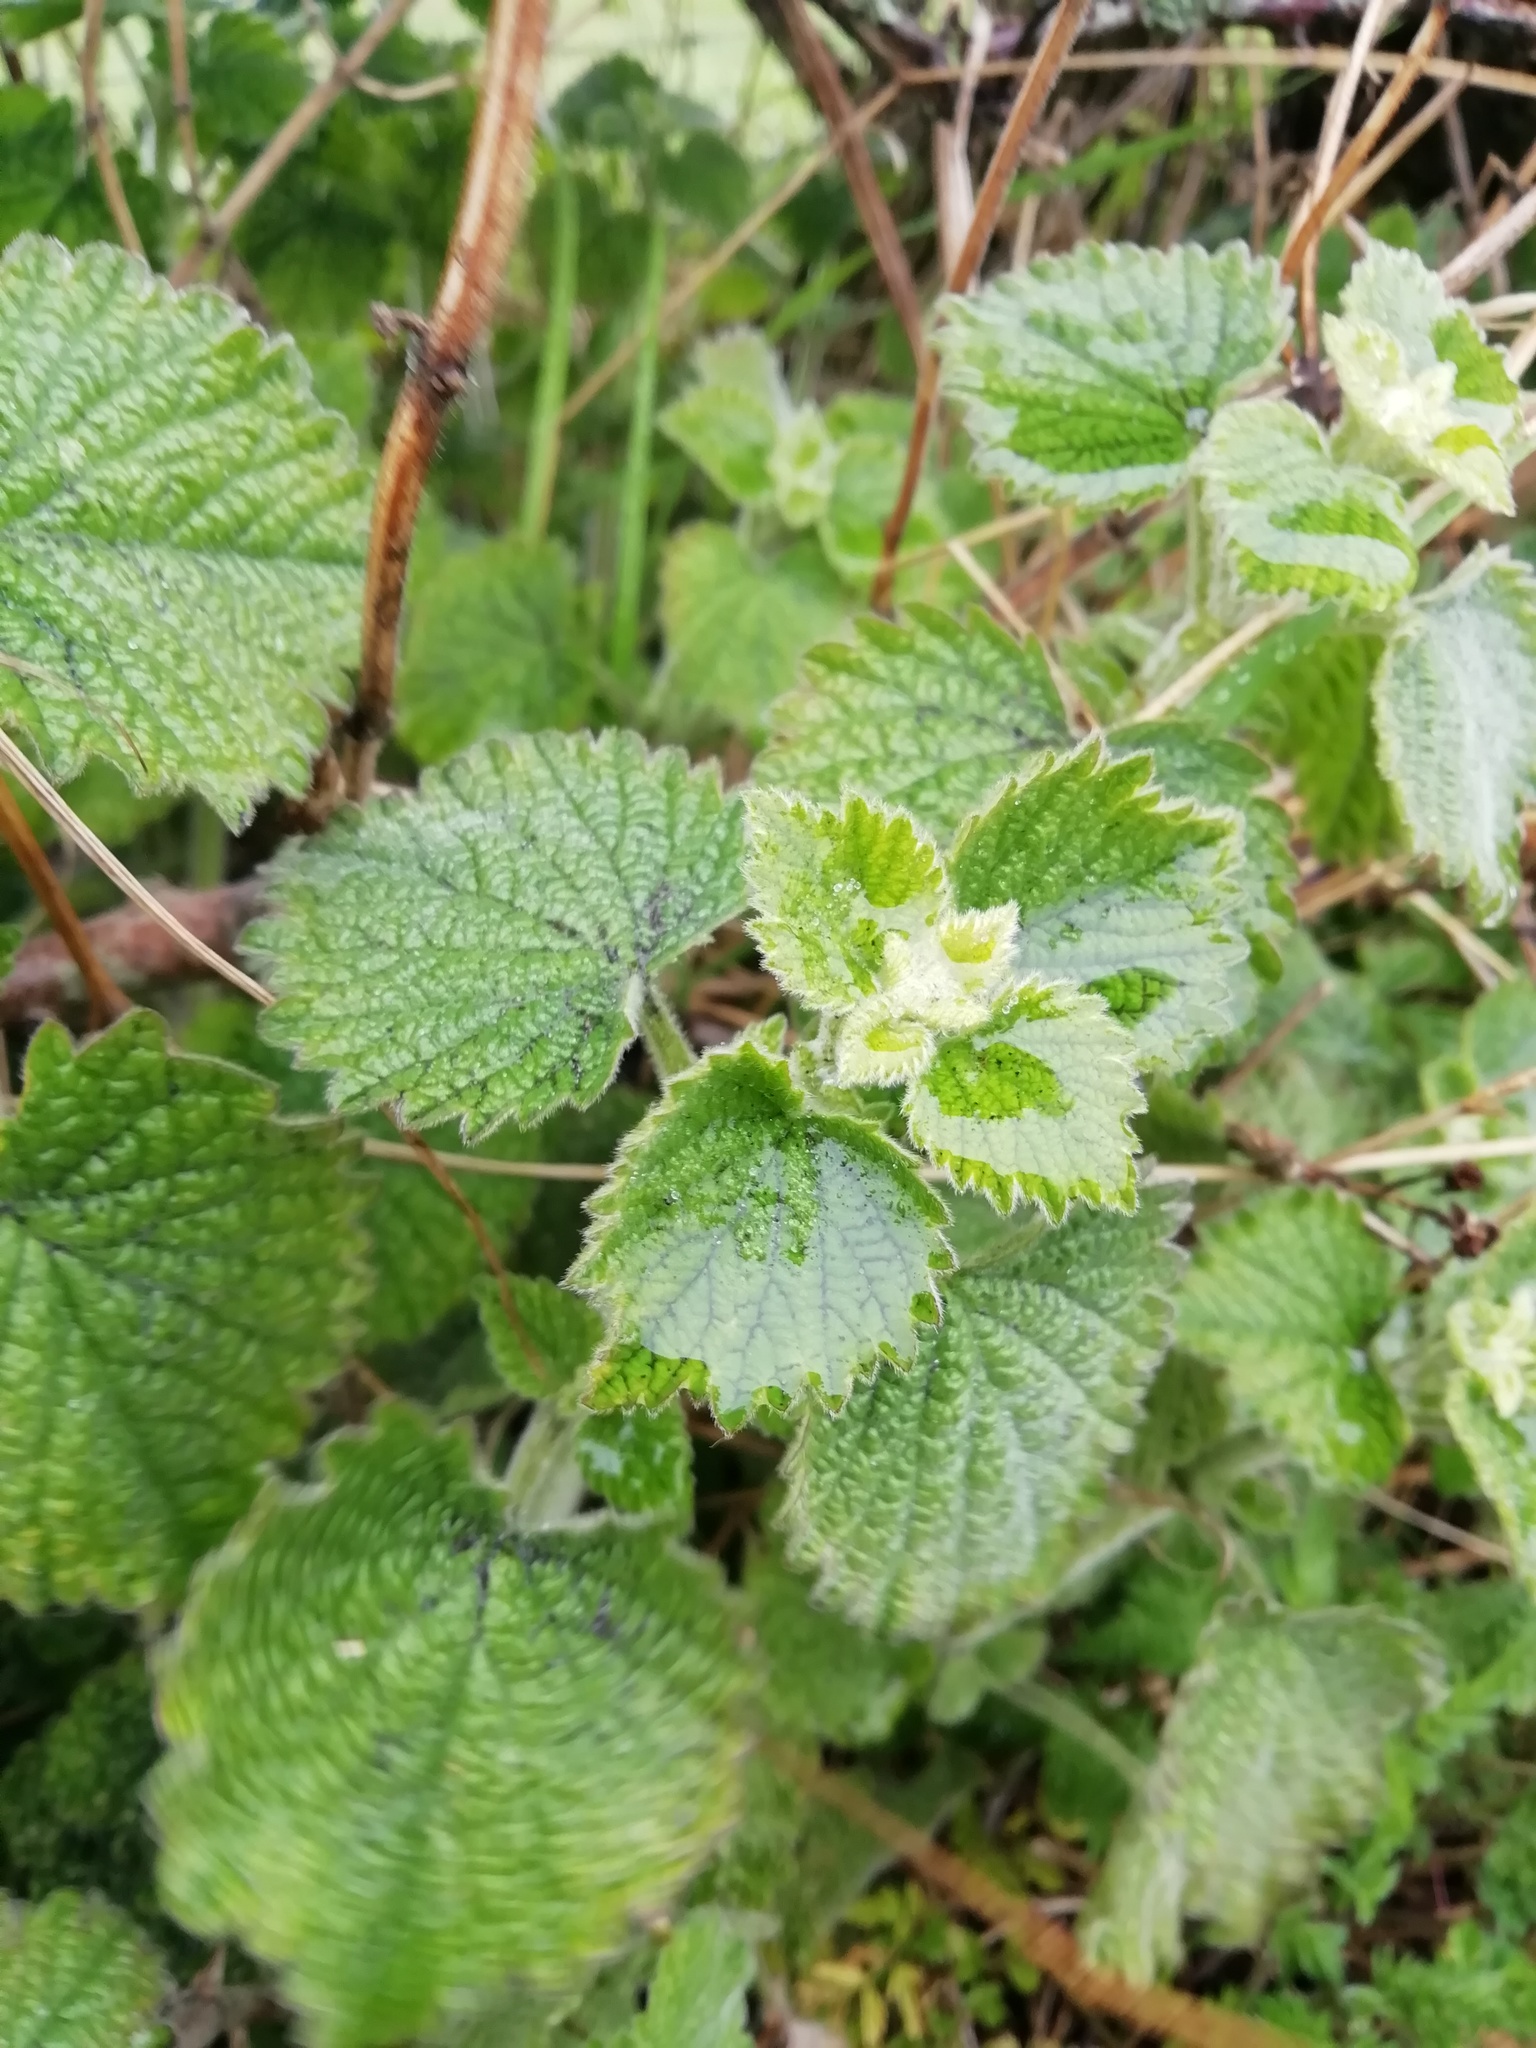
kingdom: Plantae
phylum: Tracheophyta
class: Magnoliopsida
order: Rosales
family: Urticaceae
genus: Urtica
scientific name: Urtica dioica
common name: Common nettle
